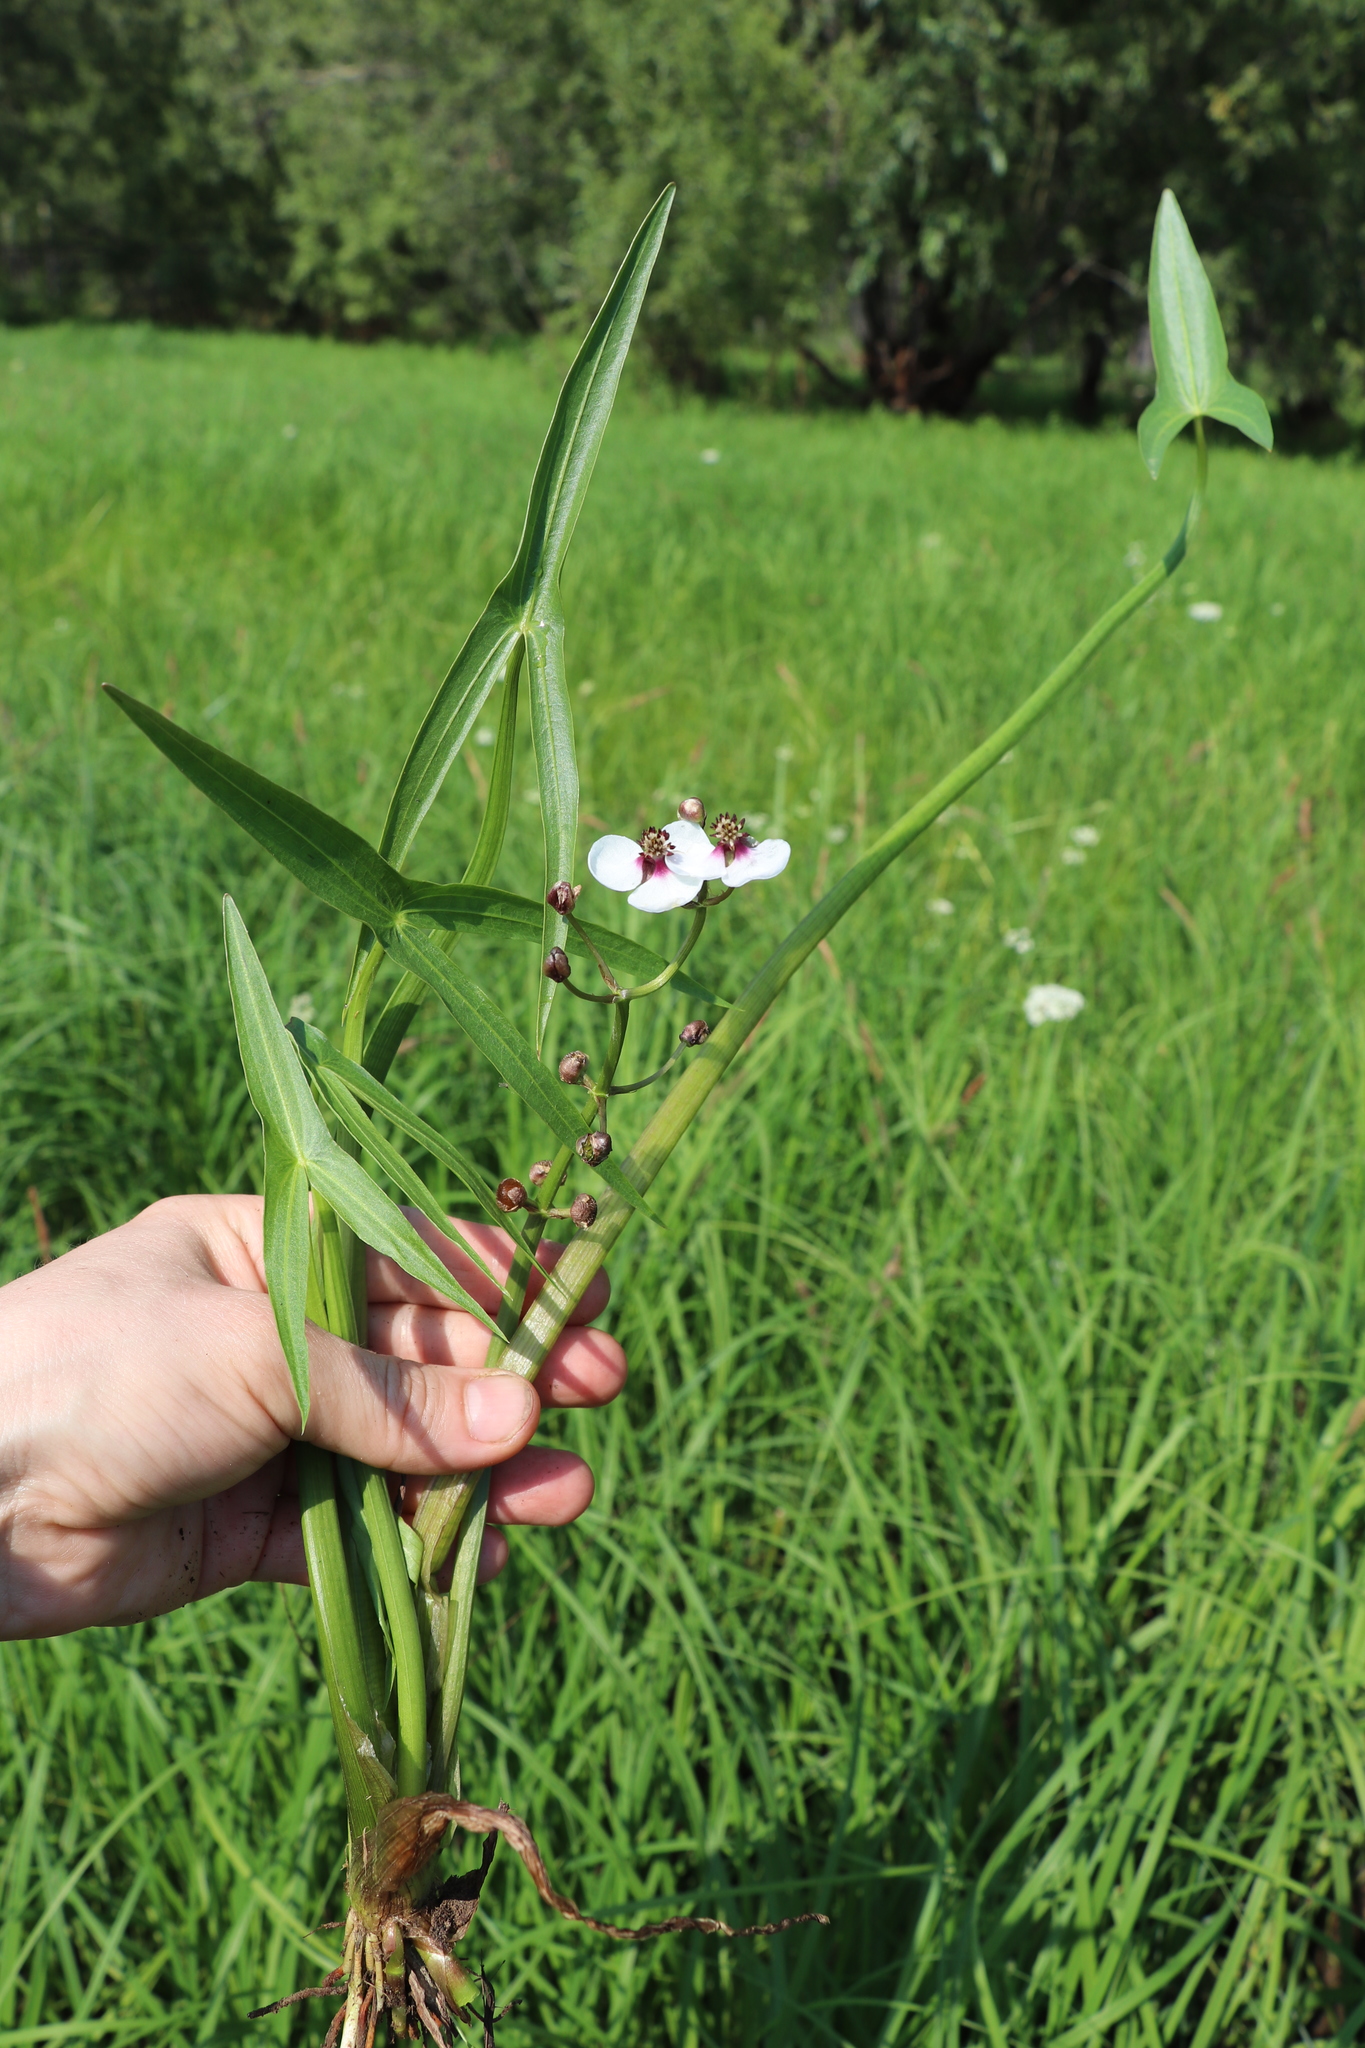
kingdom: Plantae
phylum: Tracheophyta
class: Liliopsida
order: Alismatales
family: Alismataceae
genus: Sagittaria
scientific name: Sagittaria sagittifolia
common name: Arrowhead
